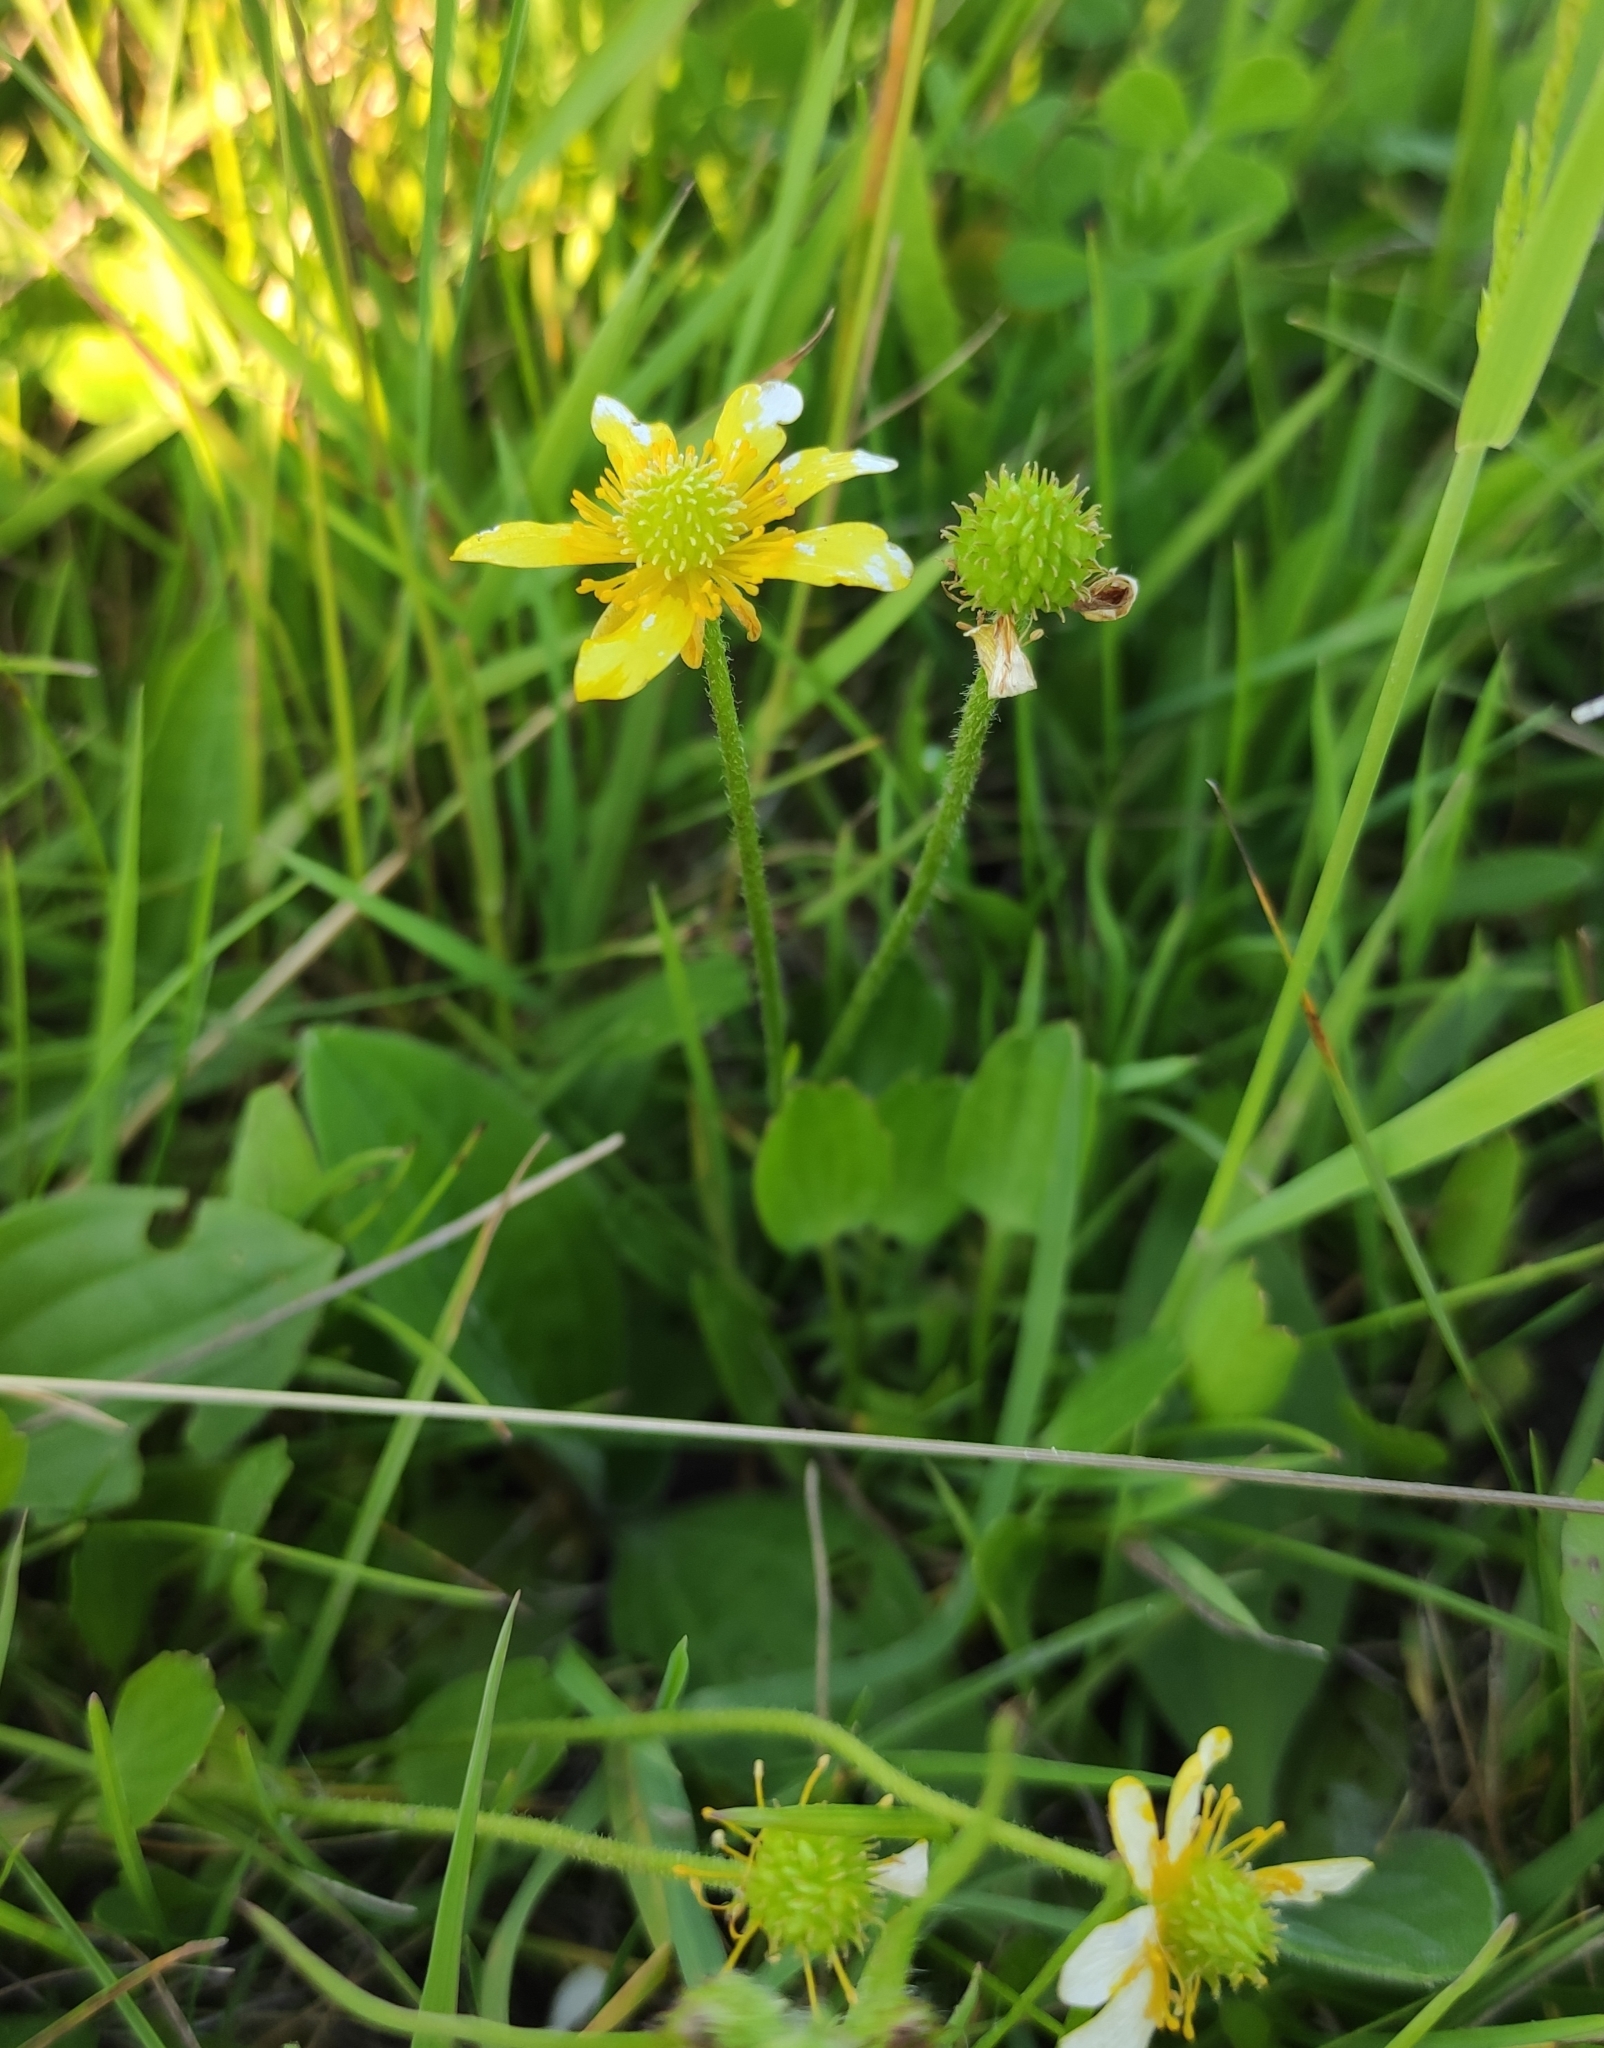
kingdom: Plantae
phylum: Tracheophyta
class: Magnoliopsida
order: Ranunculales
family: Ranunculaceae
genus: Halerpestes
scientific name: Halerpestes ruthenica
